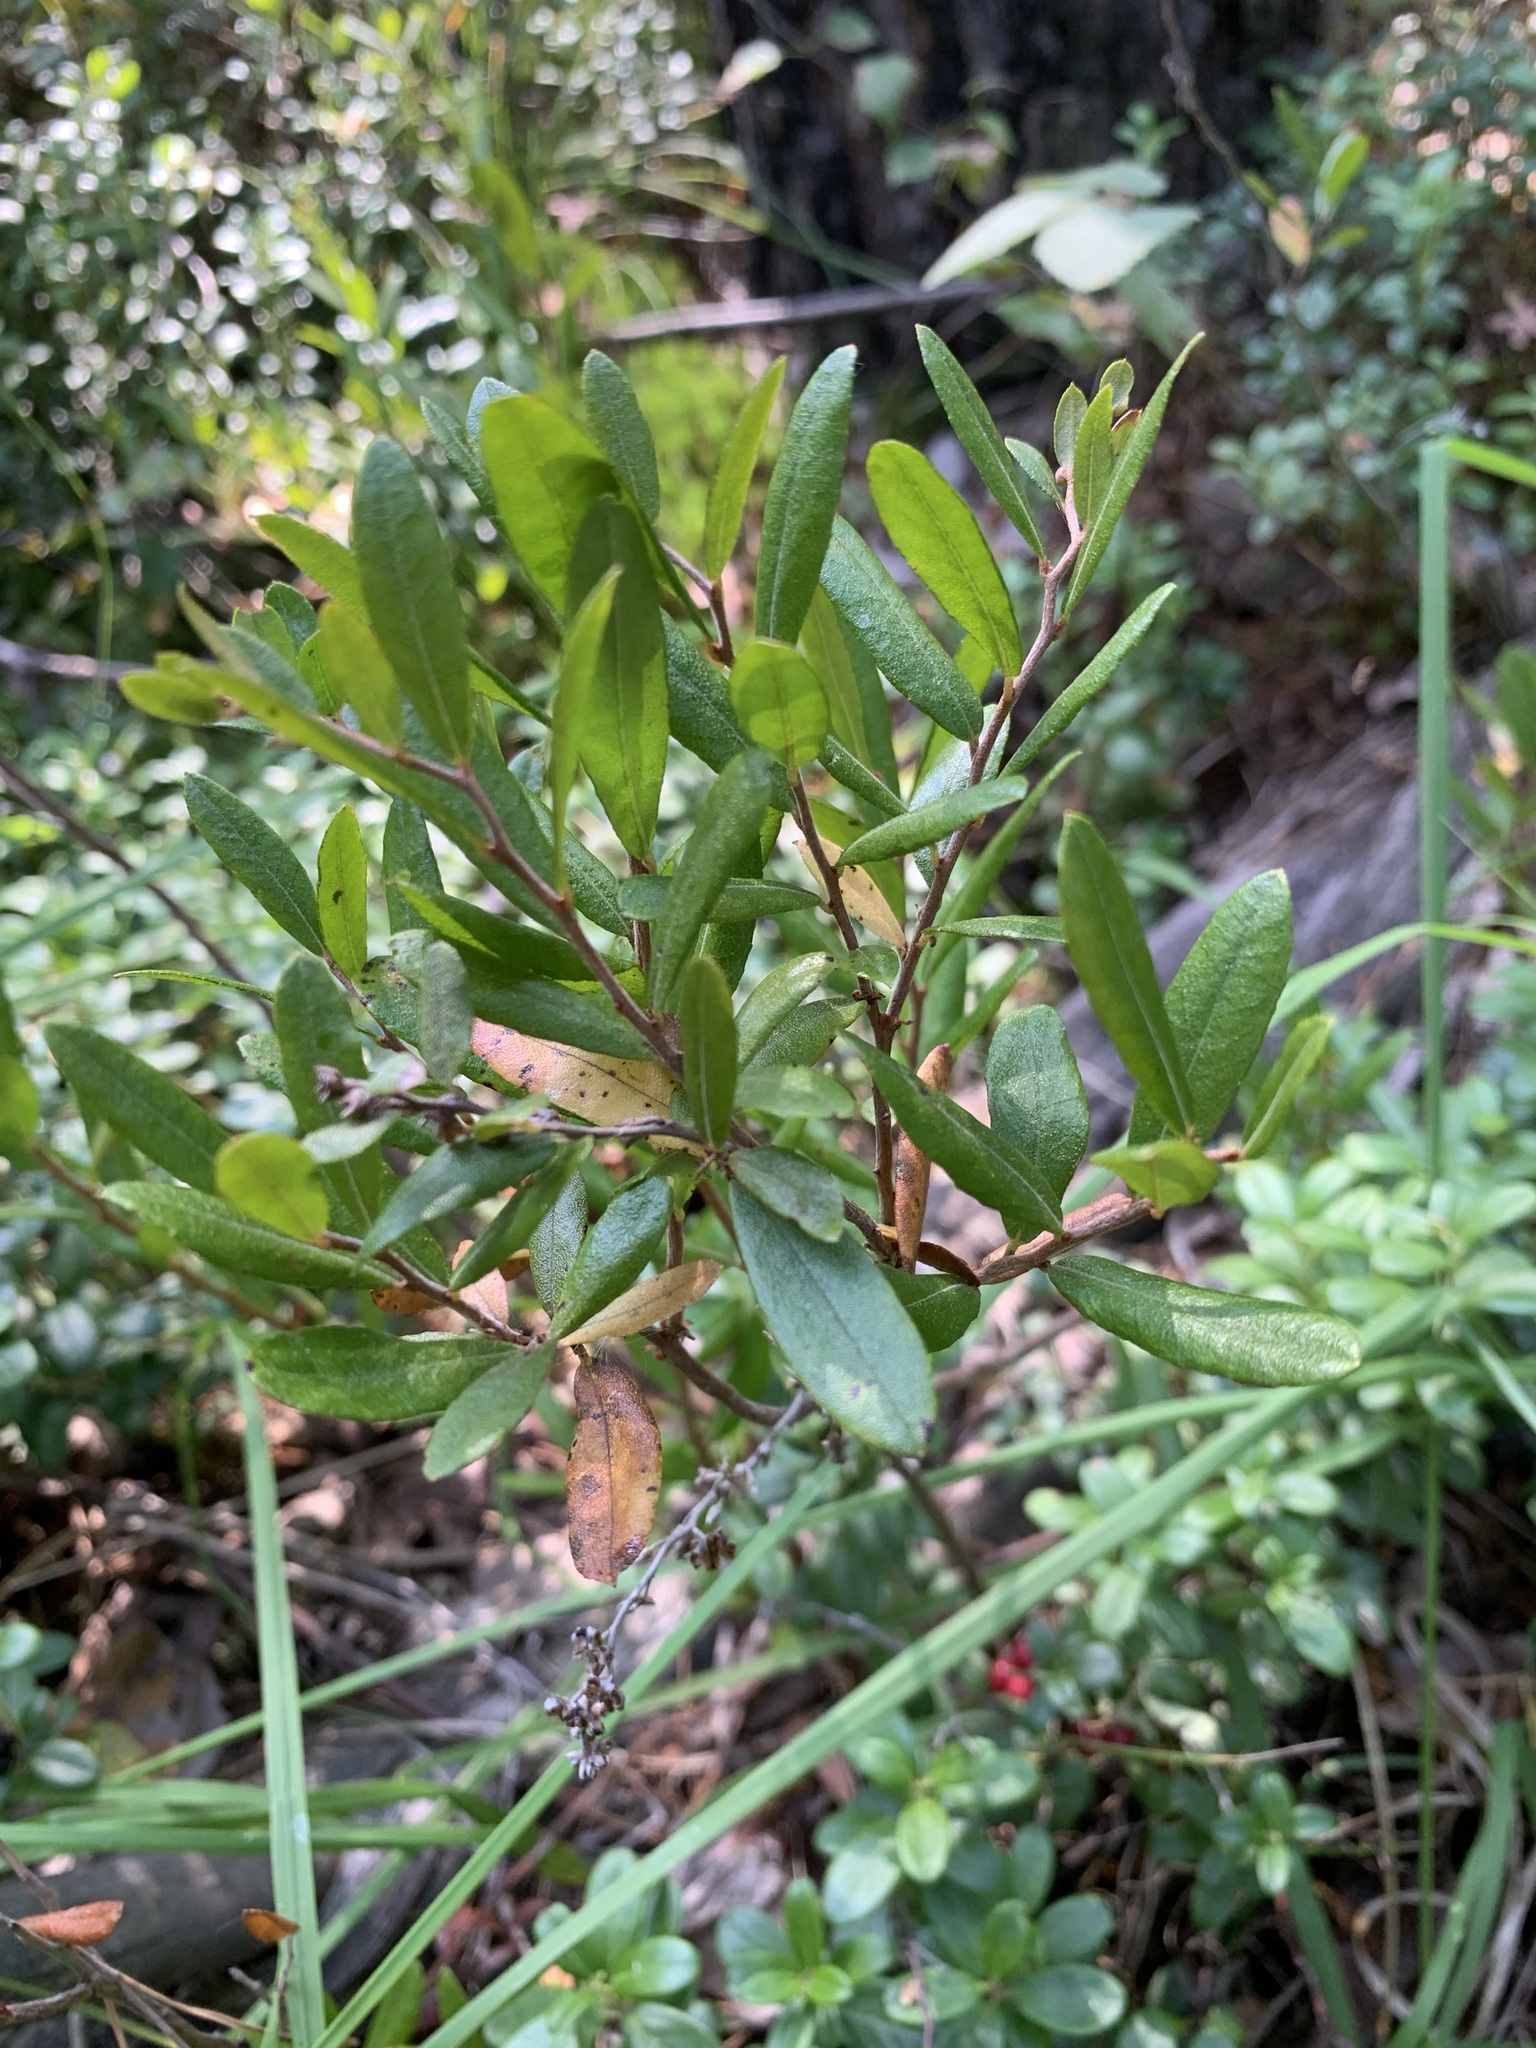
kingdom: Plantae
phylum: Tracheophyta
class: Magnoliopsida
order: Ericales
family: Ericaceae
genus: Chamaedaphne
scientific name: Chamaedaphne calyculata
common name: Leatherleaf
